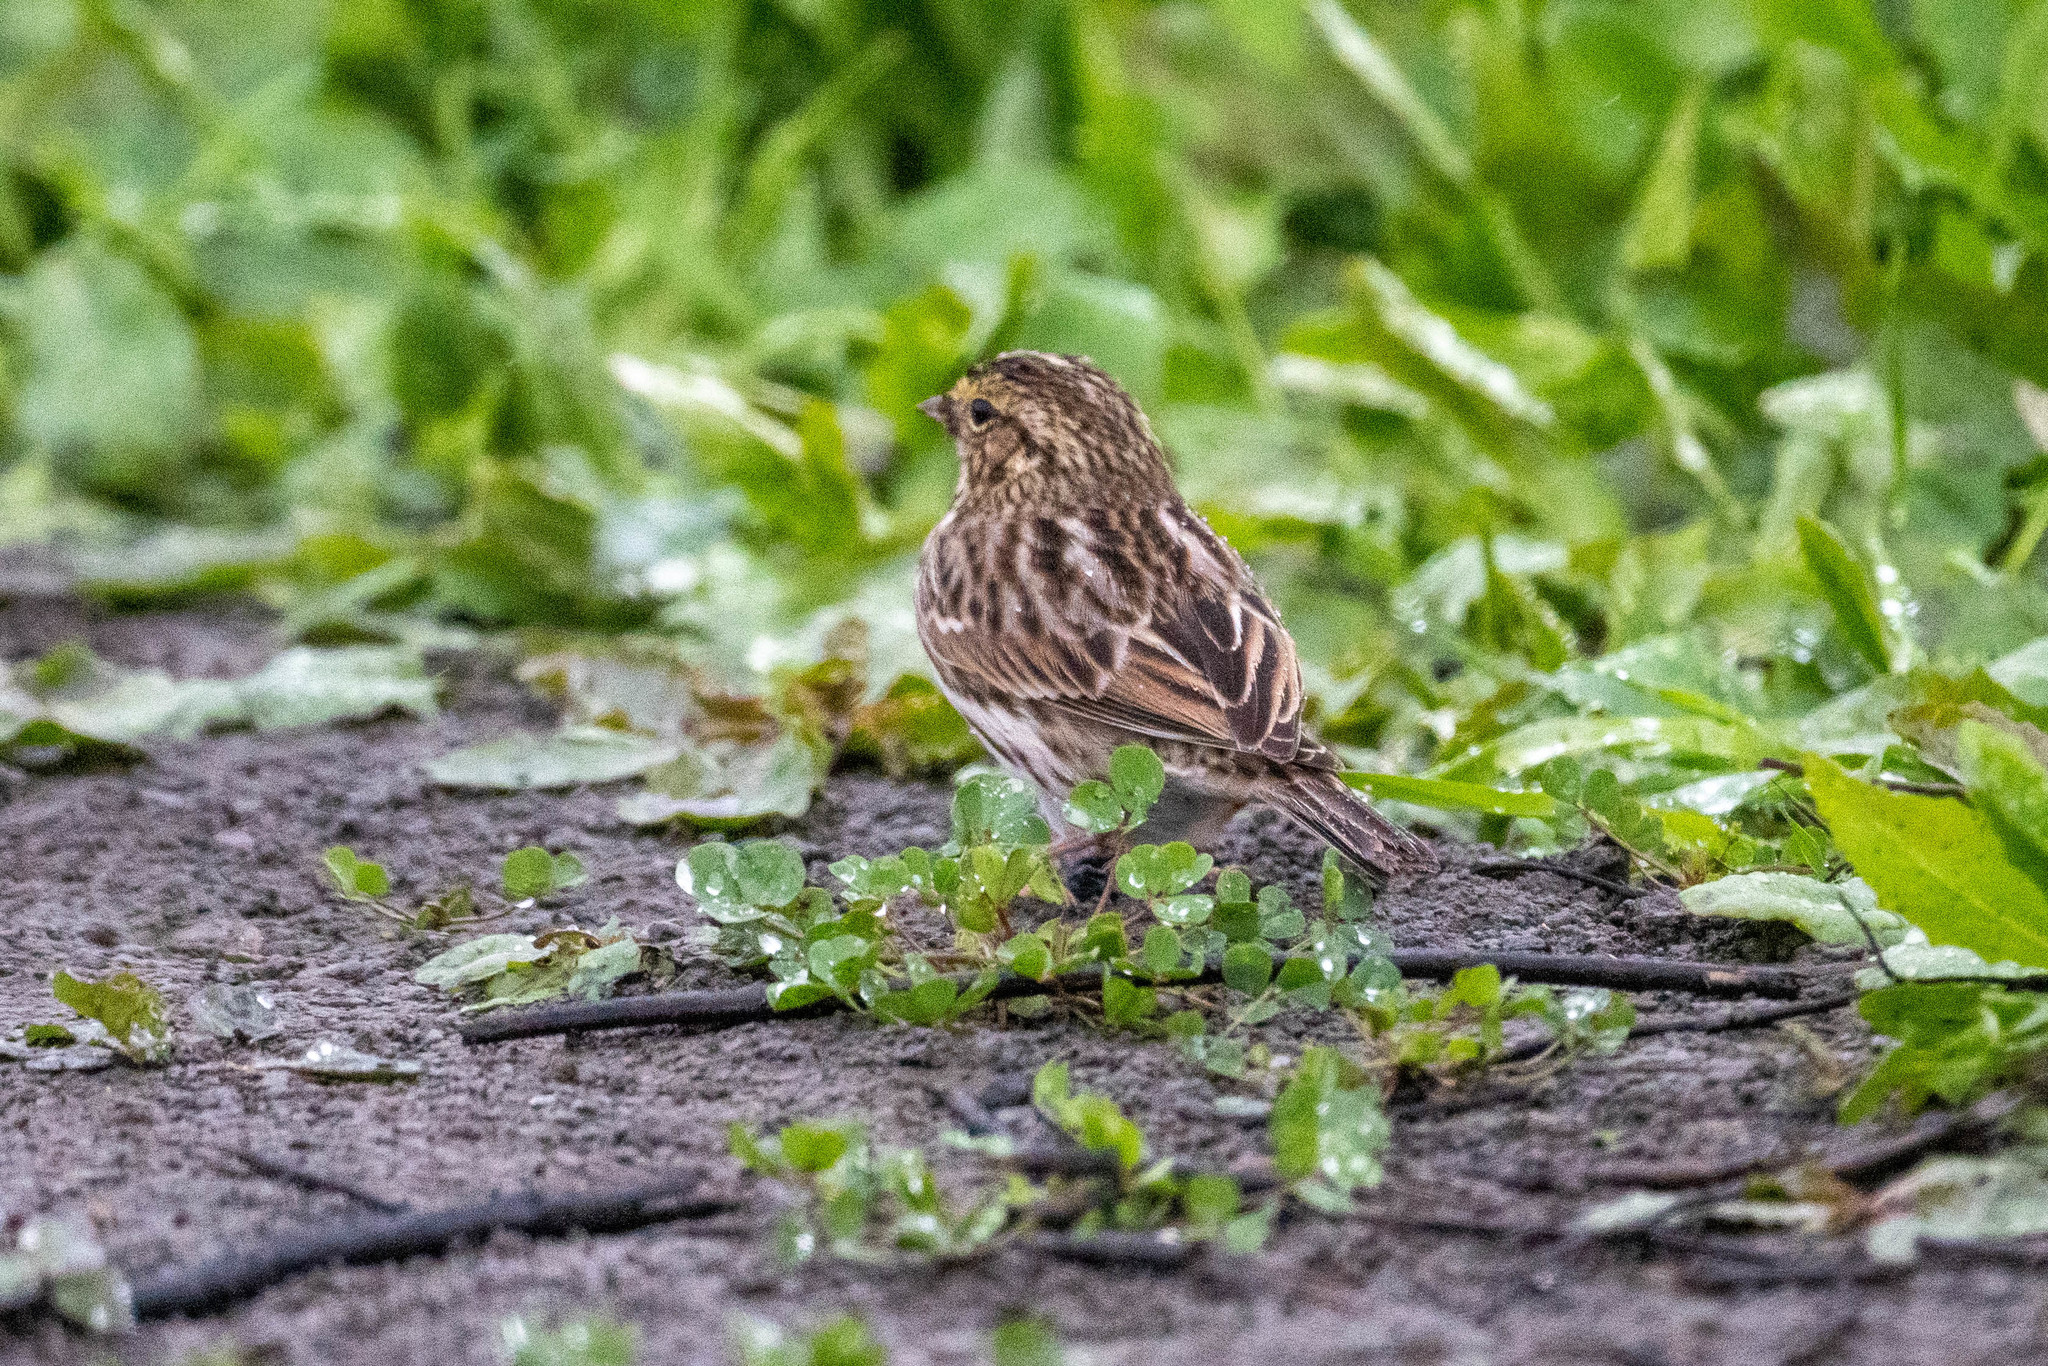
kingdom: Animalia
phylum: Chordata
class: Aves
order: Passeriformes
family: Passerellidae
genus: Passerculus
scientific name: Passerculus sandwichensis
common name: Savannah sparrow
